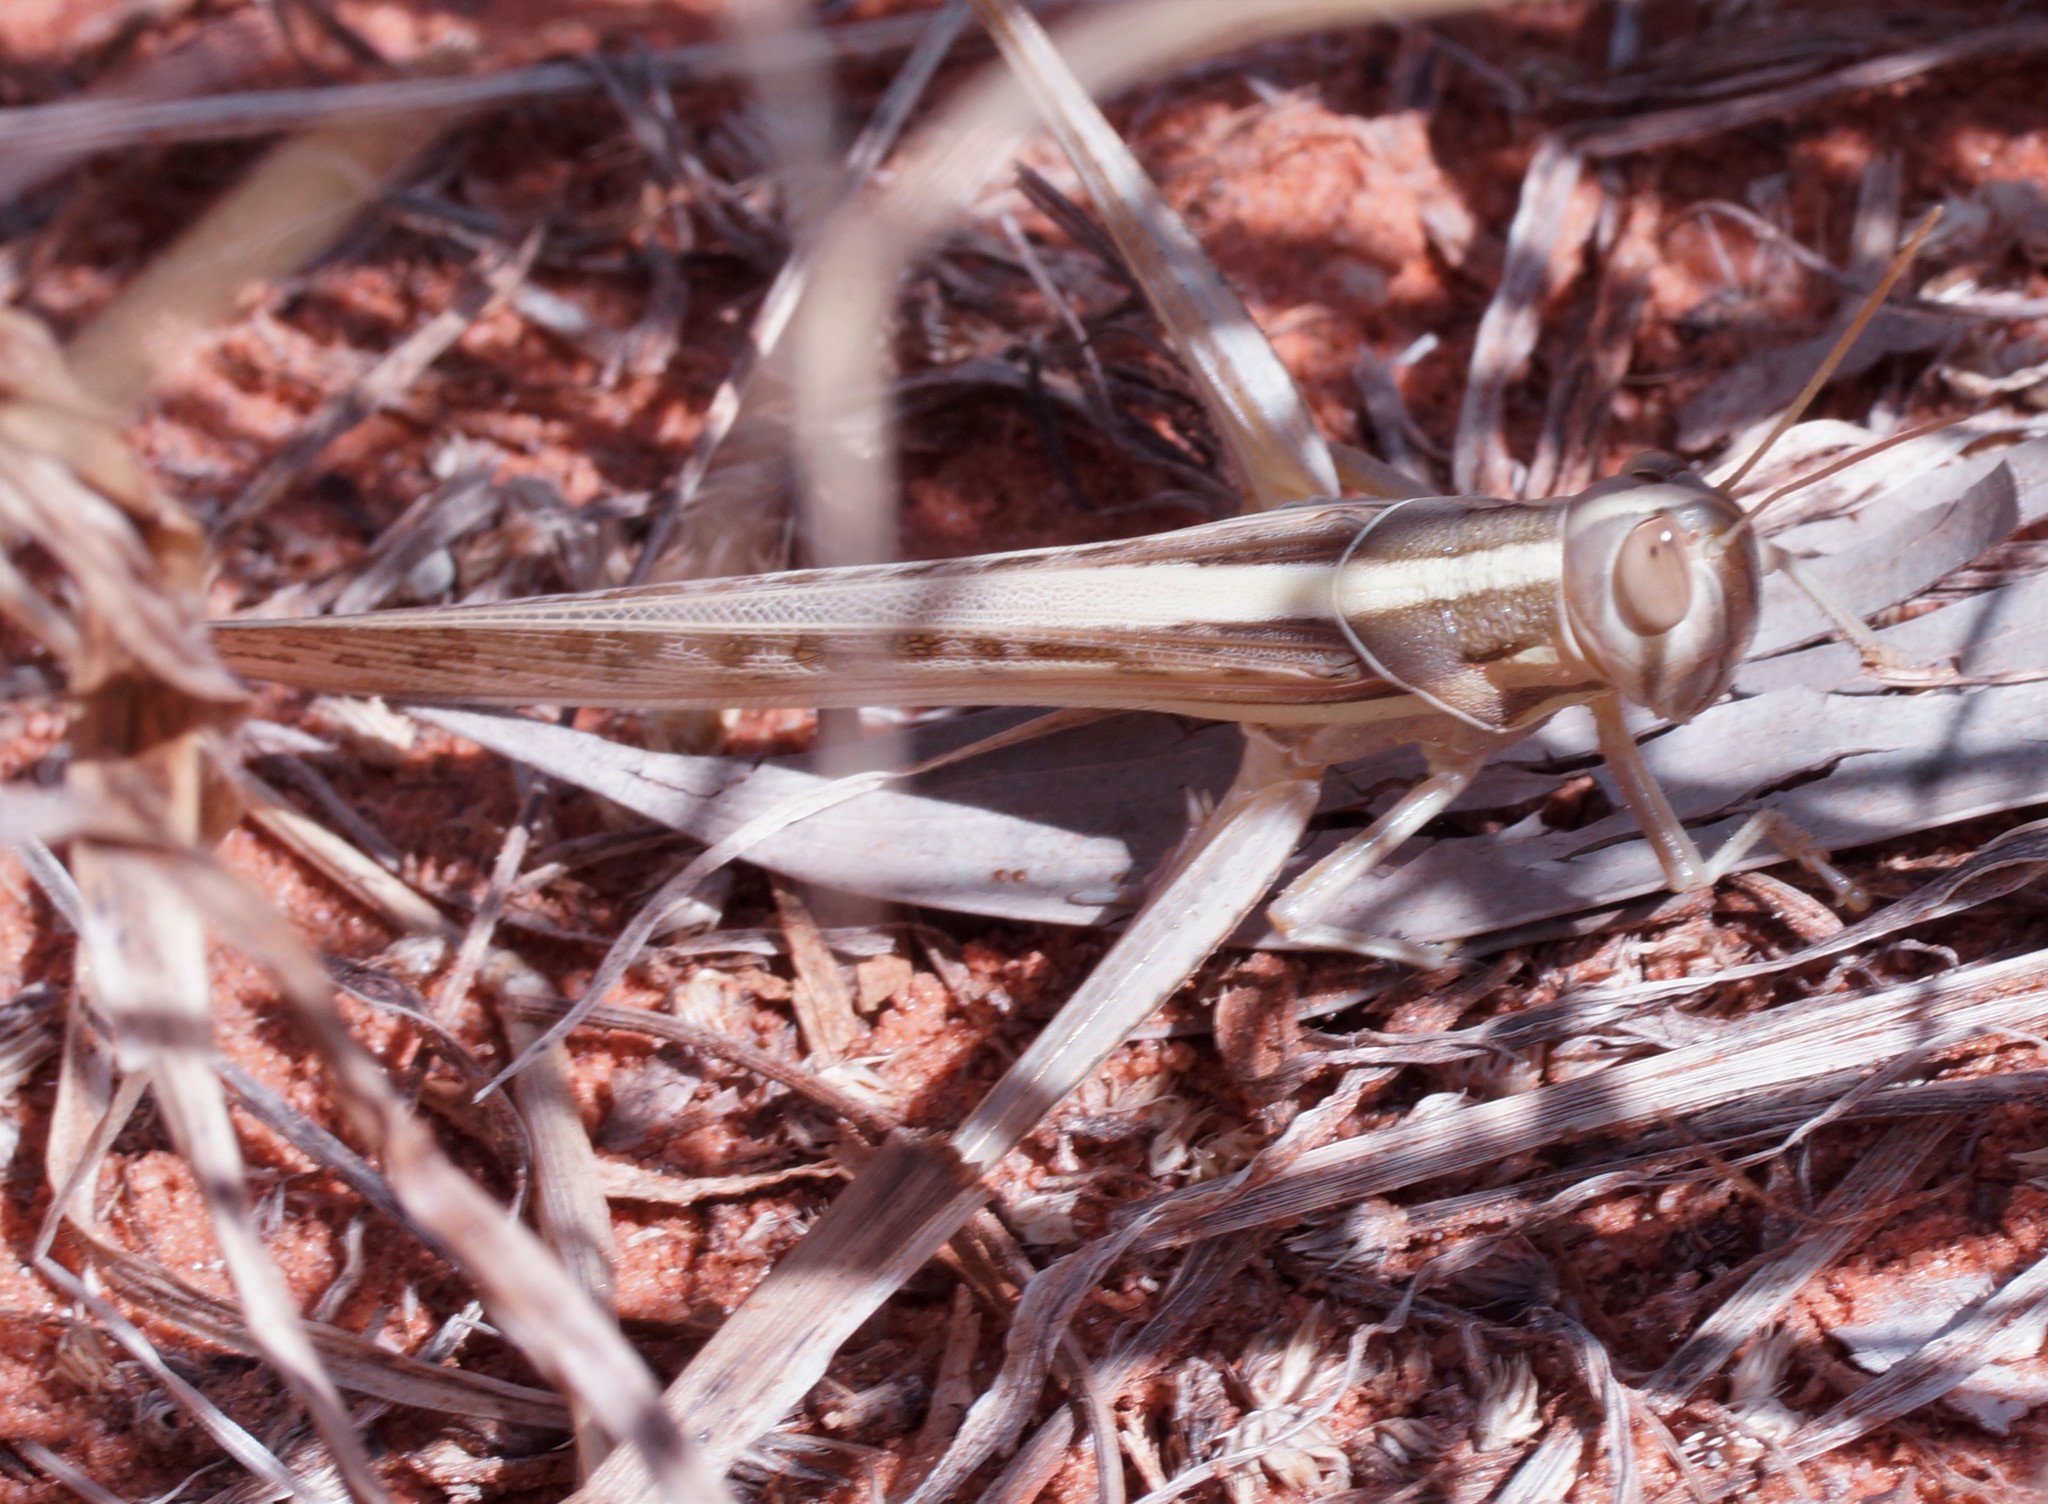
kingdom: Animalia
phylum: Arthropoda
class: Insecta
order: Orthoptera
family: Acrididae
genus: Austracris
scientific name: Austracris guttulosa
